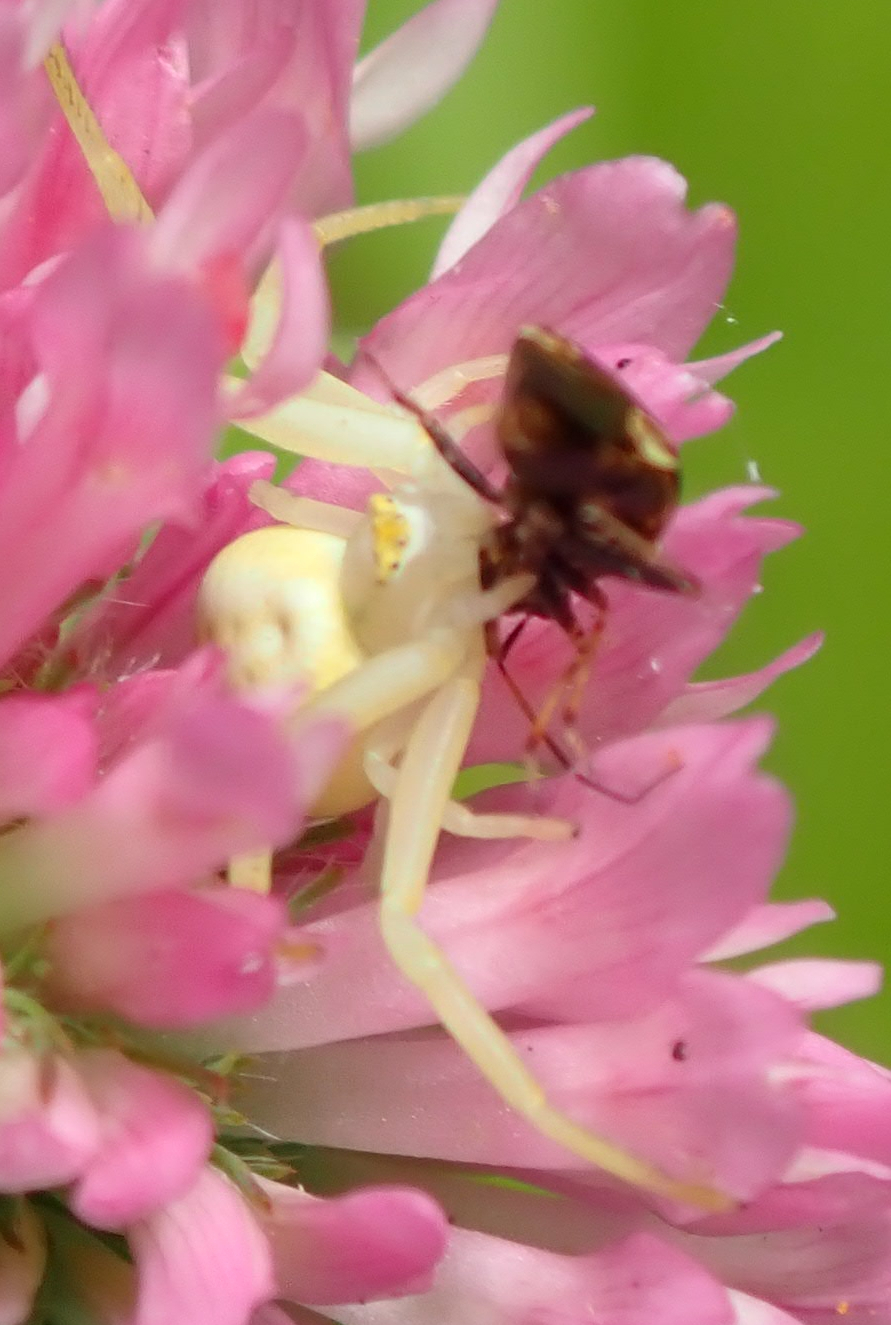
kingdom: Animalia
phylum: Arthropoda
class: Arachnida
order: Araneae
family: Thomisidae
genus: Misumena
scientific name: Misumena vatia
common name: Goldenrod crab spider
